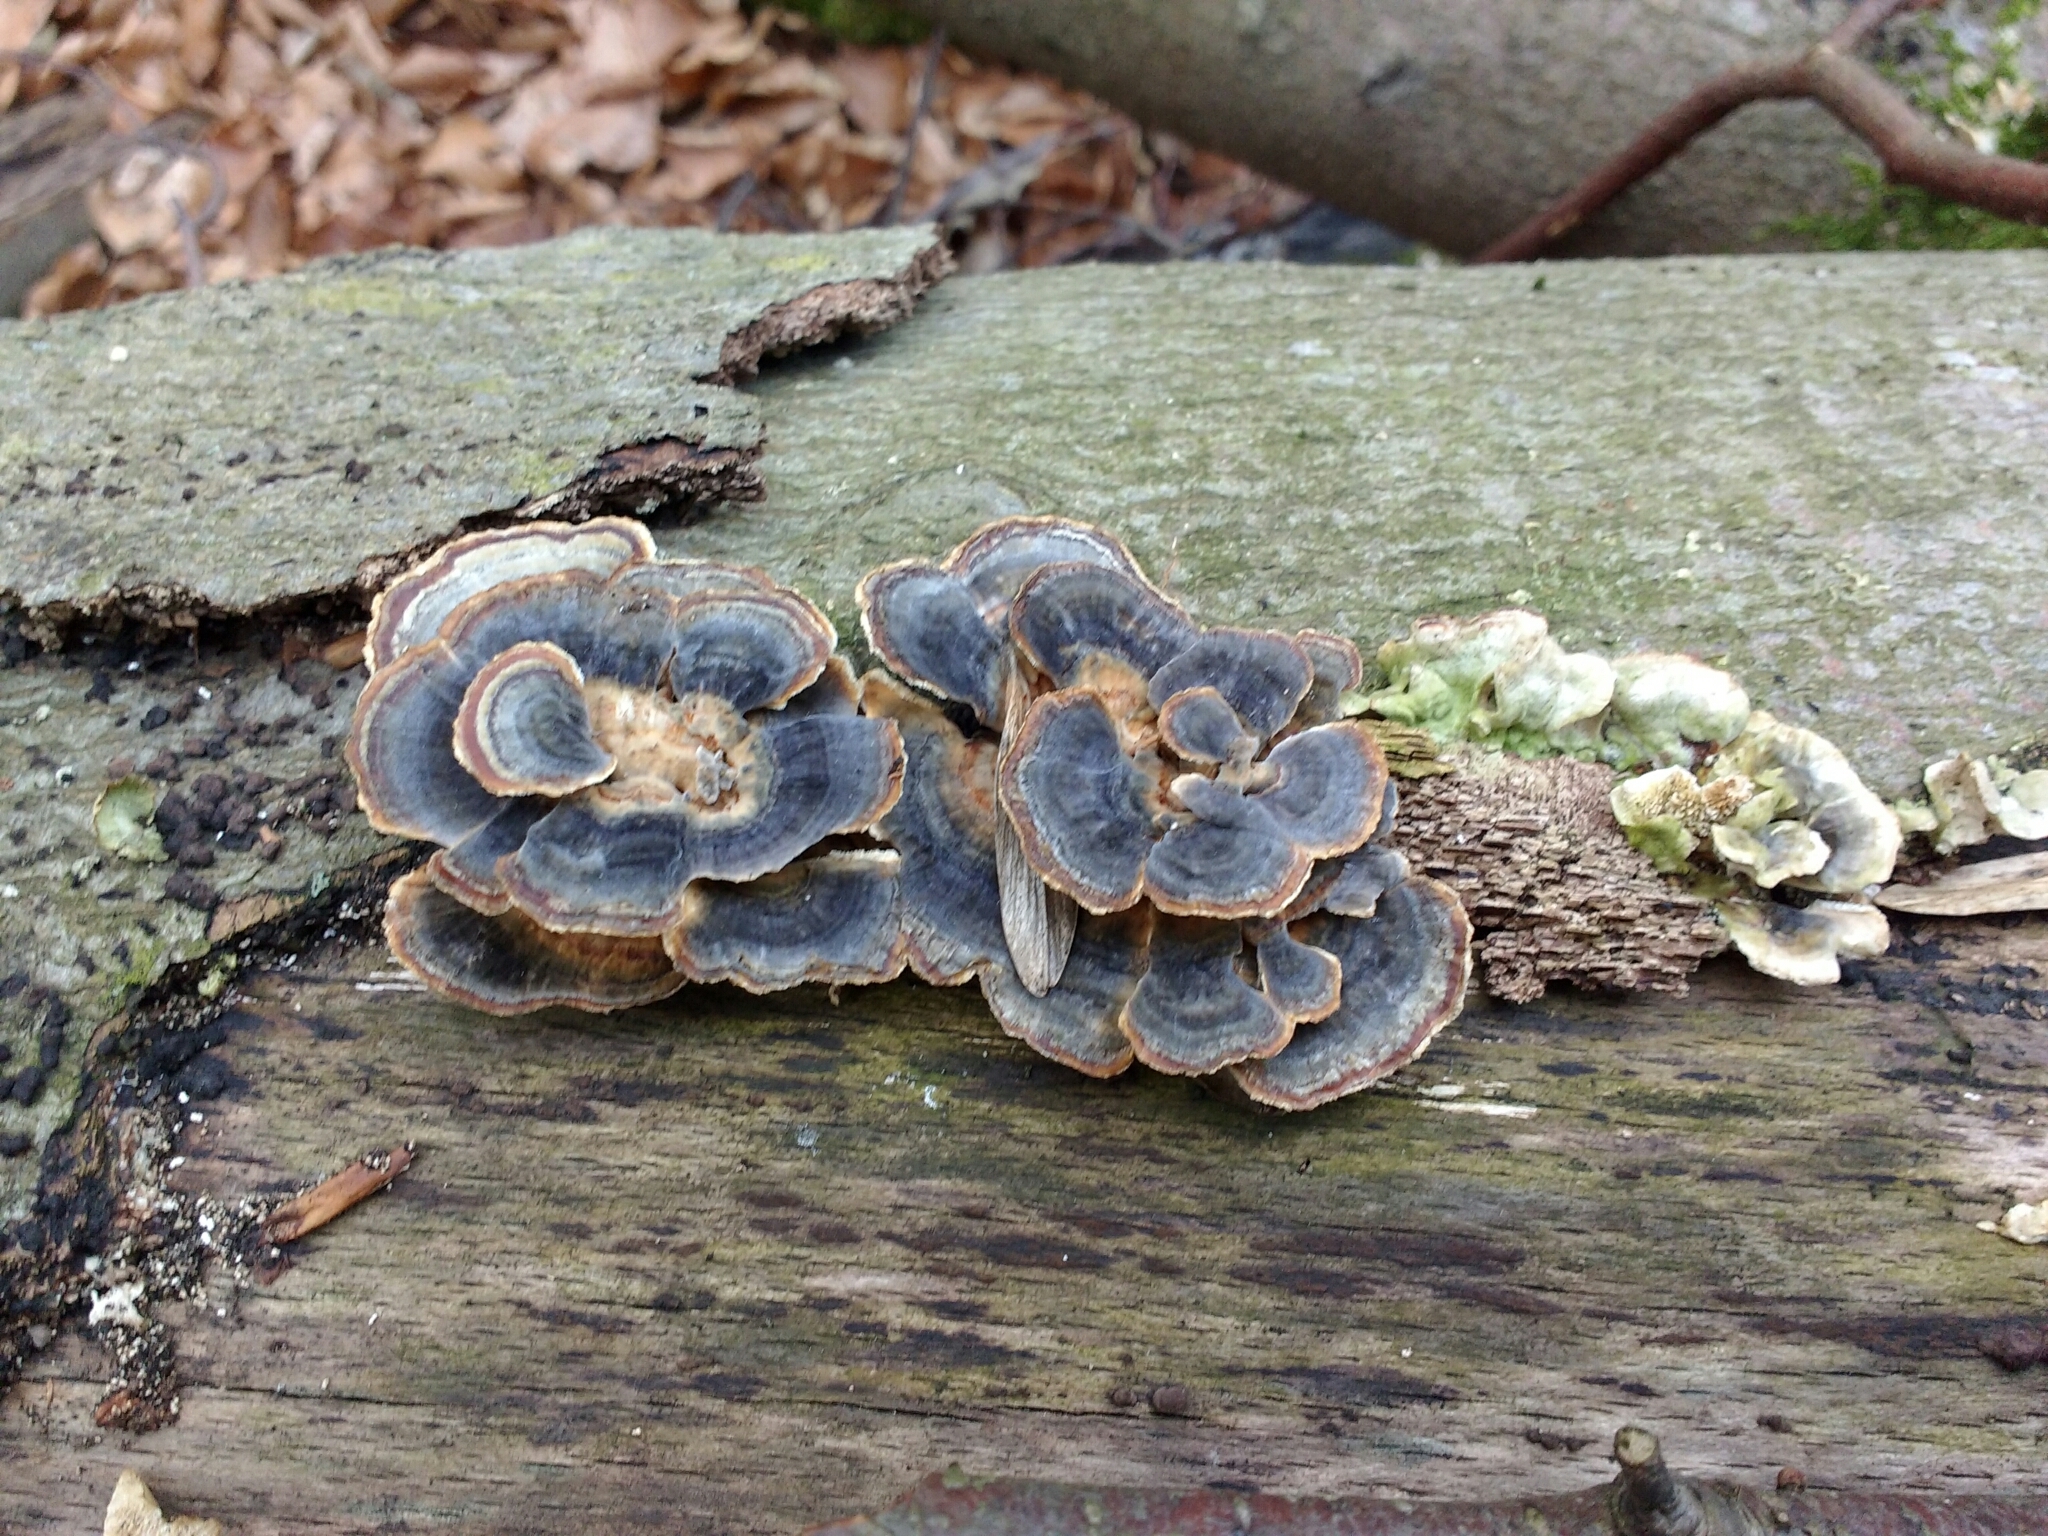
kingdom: Fungi
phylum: Basidiomycota
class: Agaricomycetes
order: Polyporales
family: Polyporaceae
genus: Trametes
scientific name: Trametes versicolor
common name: Turkeytail
